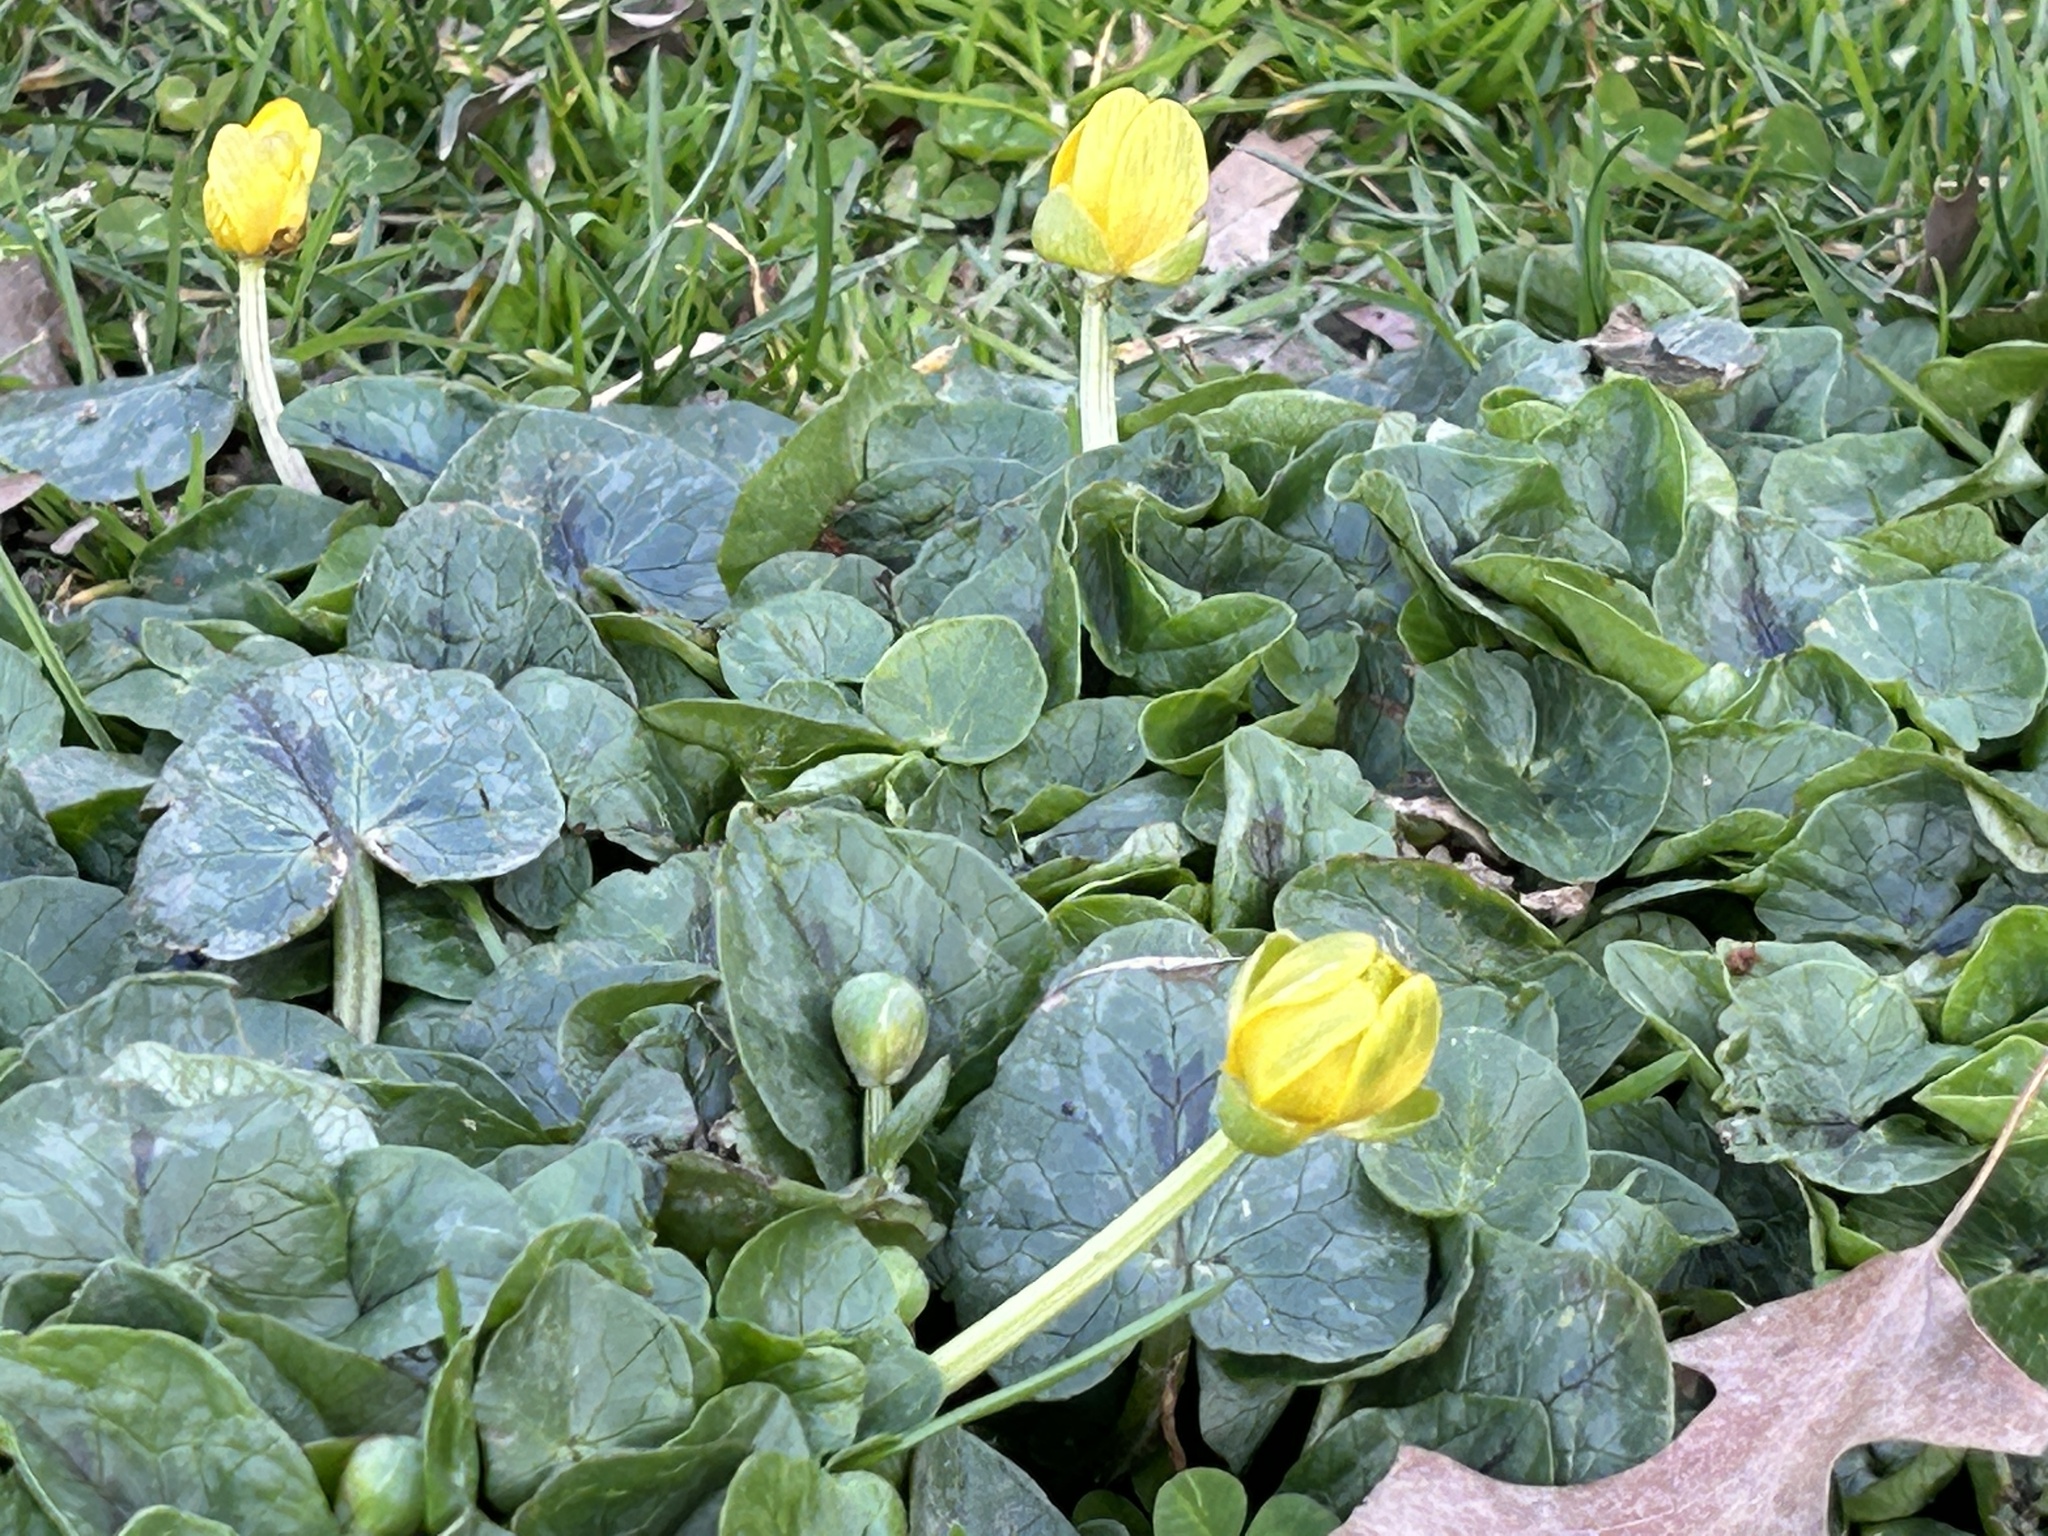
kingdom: Plantae
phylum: Tracheophyta
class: Magnoliopsida
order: Ranunculales
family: Ranunculaceae
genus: Ficaria
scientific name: Ficaria verna
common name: Lesser celandine
